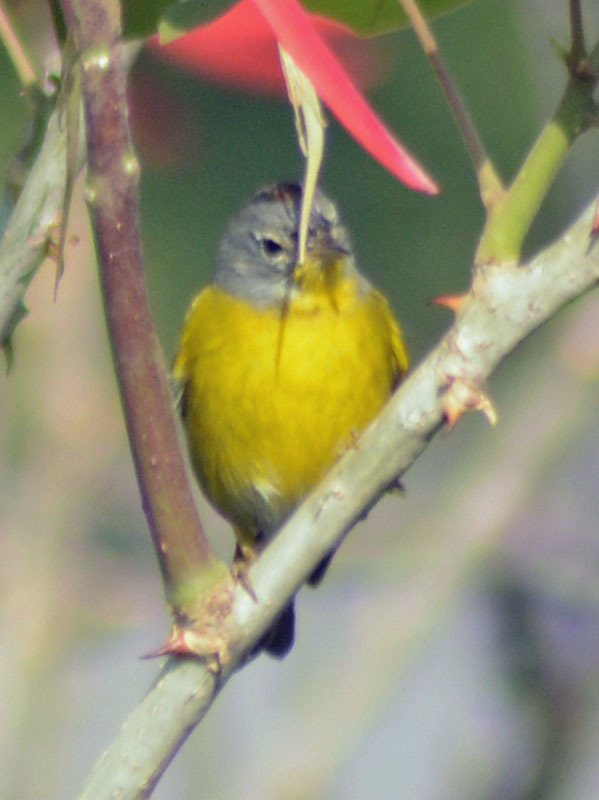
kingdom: Animalia
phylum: Chordata
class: Aves
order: Passeriformes
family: Parulidae
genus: Leiothlypis
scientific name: Leiothlypis ruficapilla
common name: Nashville warbler
